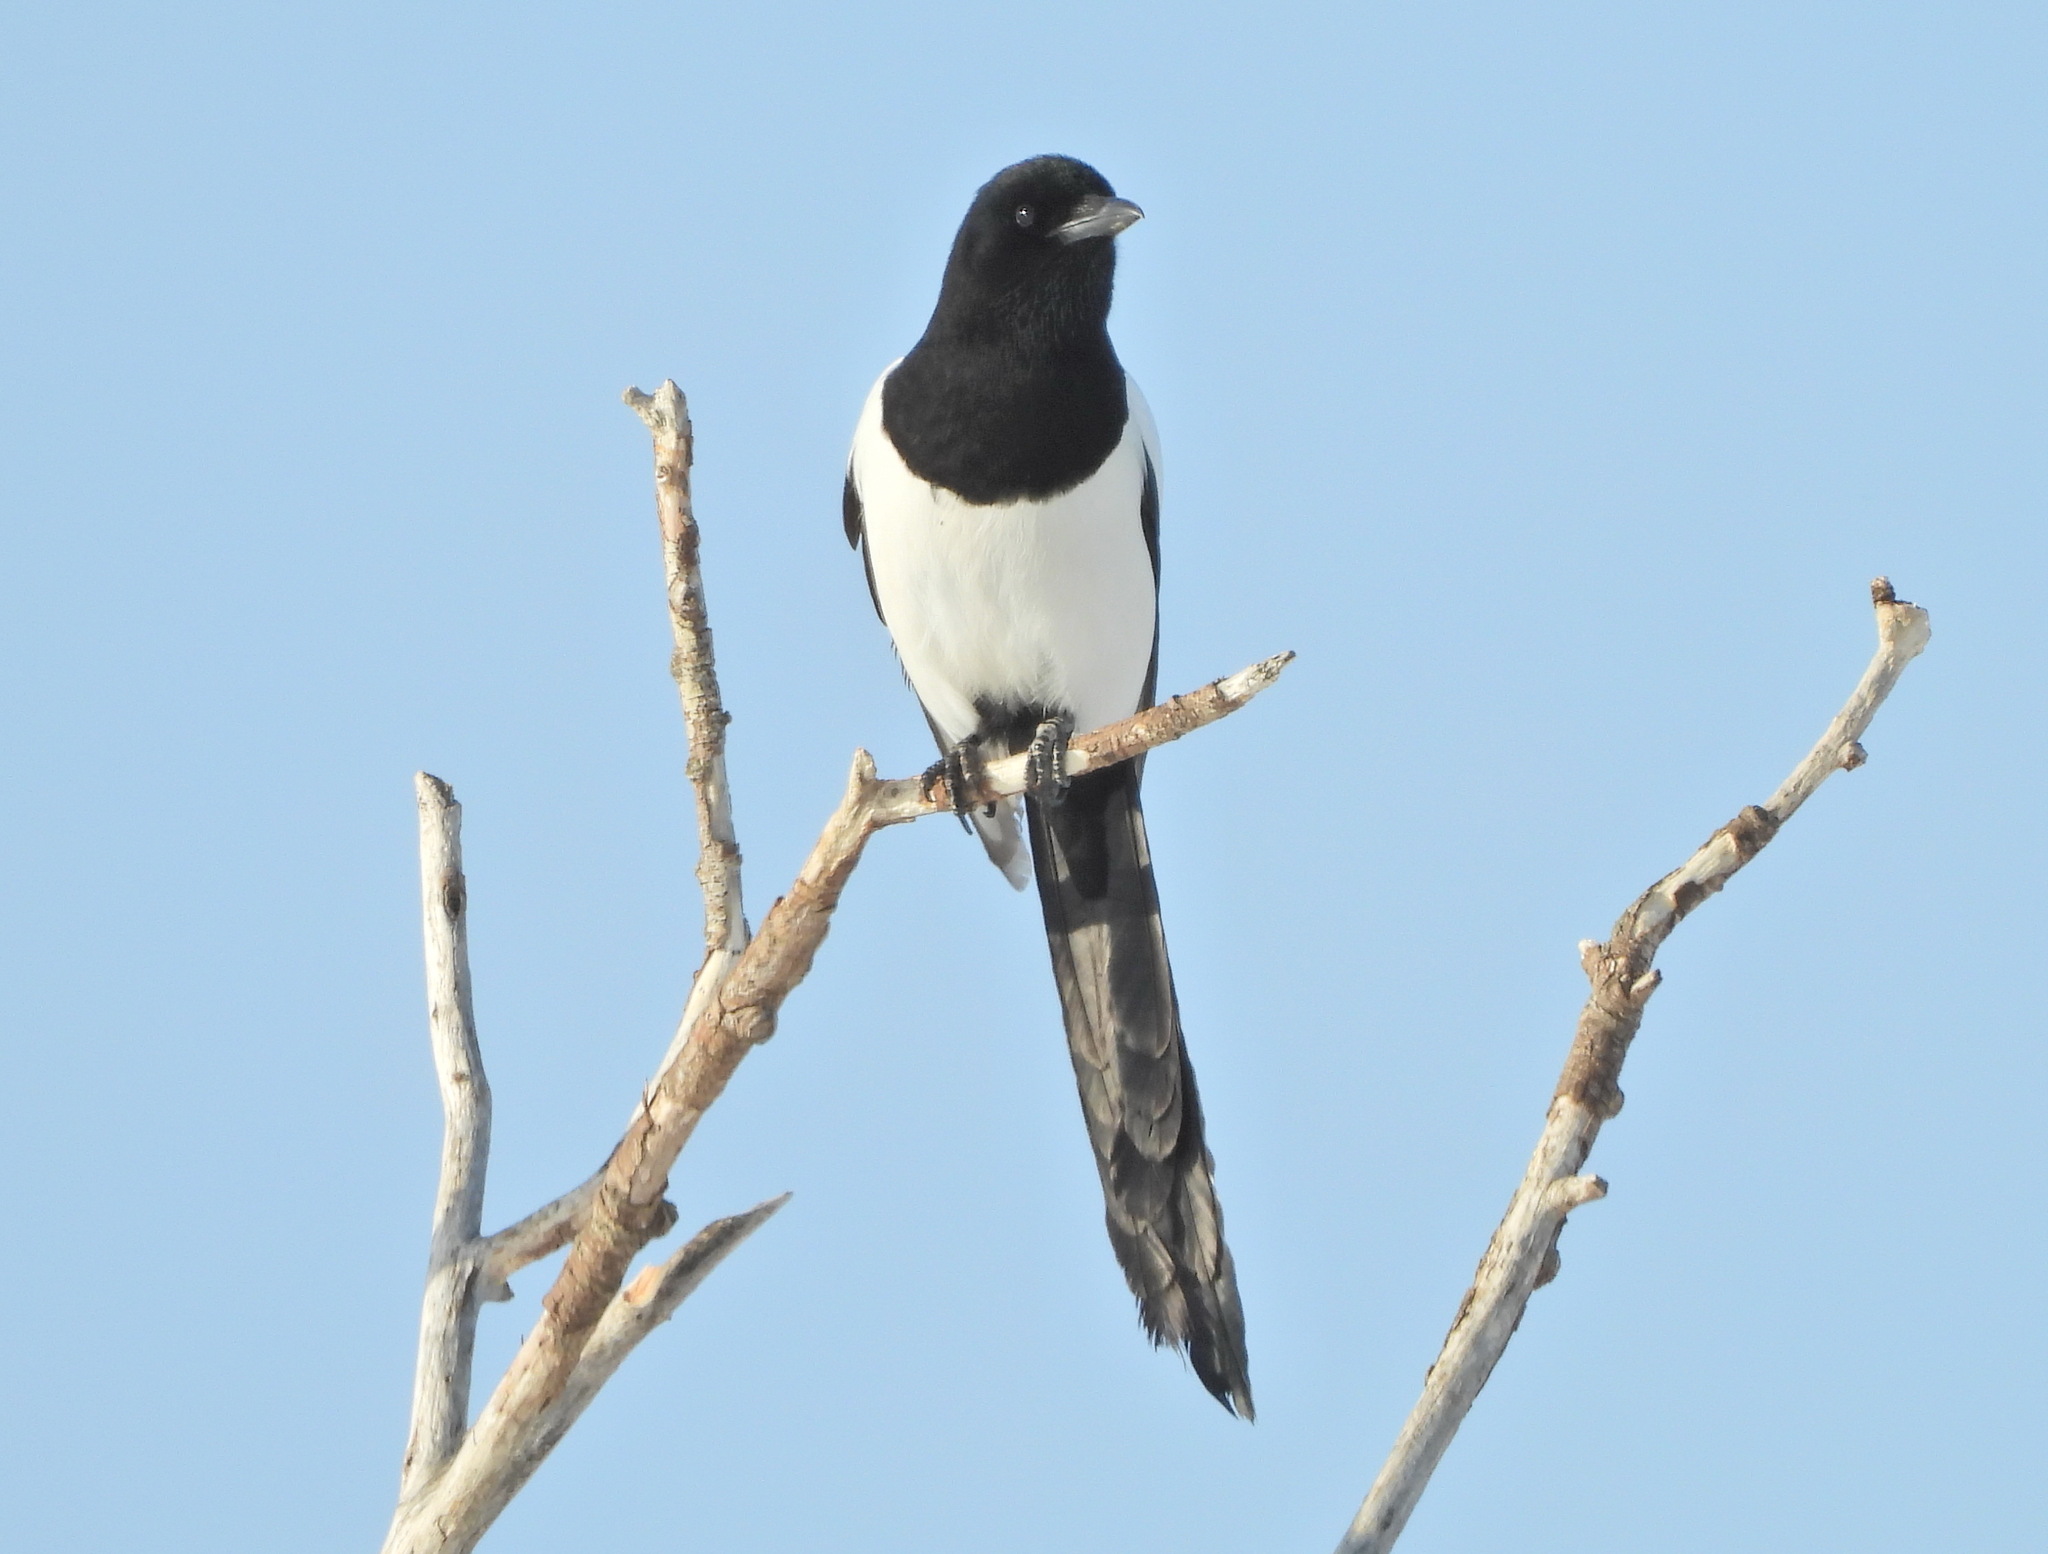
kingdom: Animalia
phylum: Chordata
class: Aves
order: Passeriformes
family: Corvidae
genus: Pica
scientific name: Pica pica
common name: Eurasian magpie
